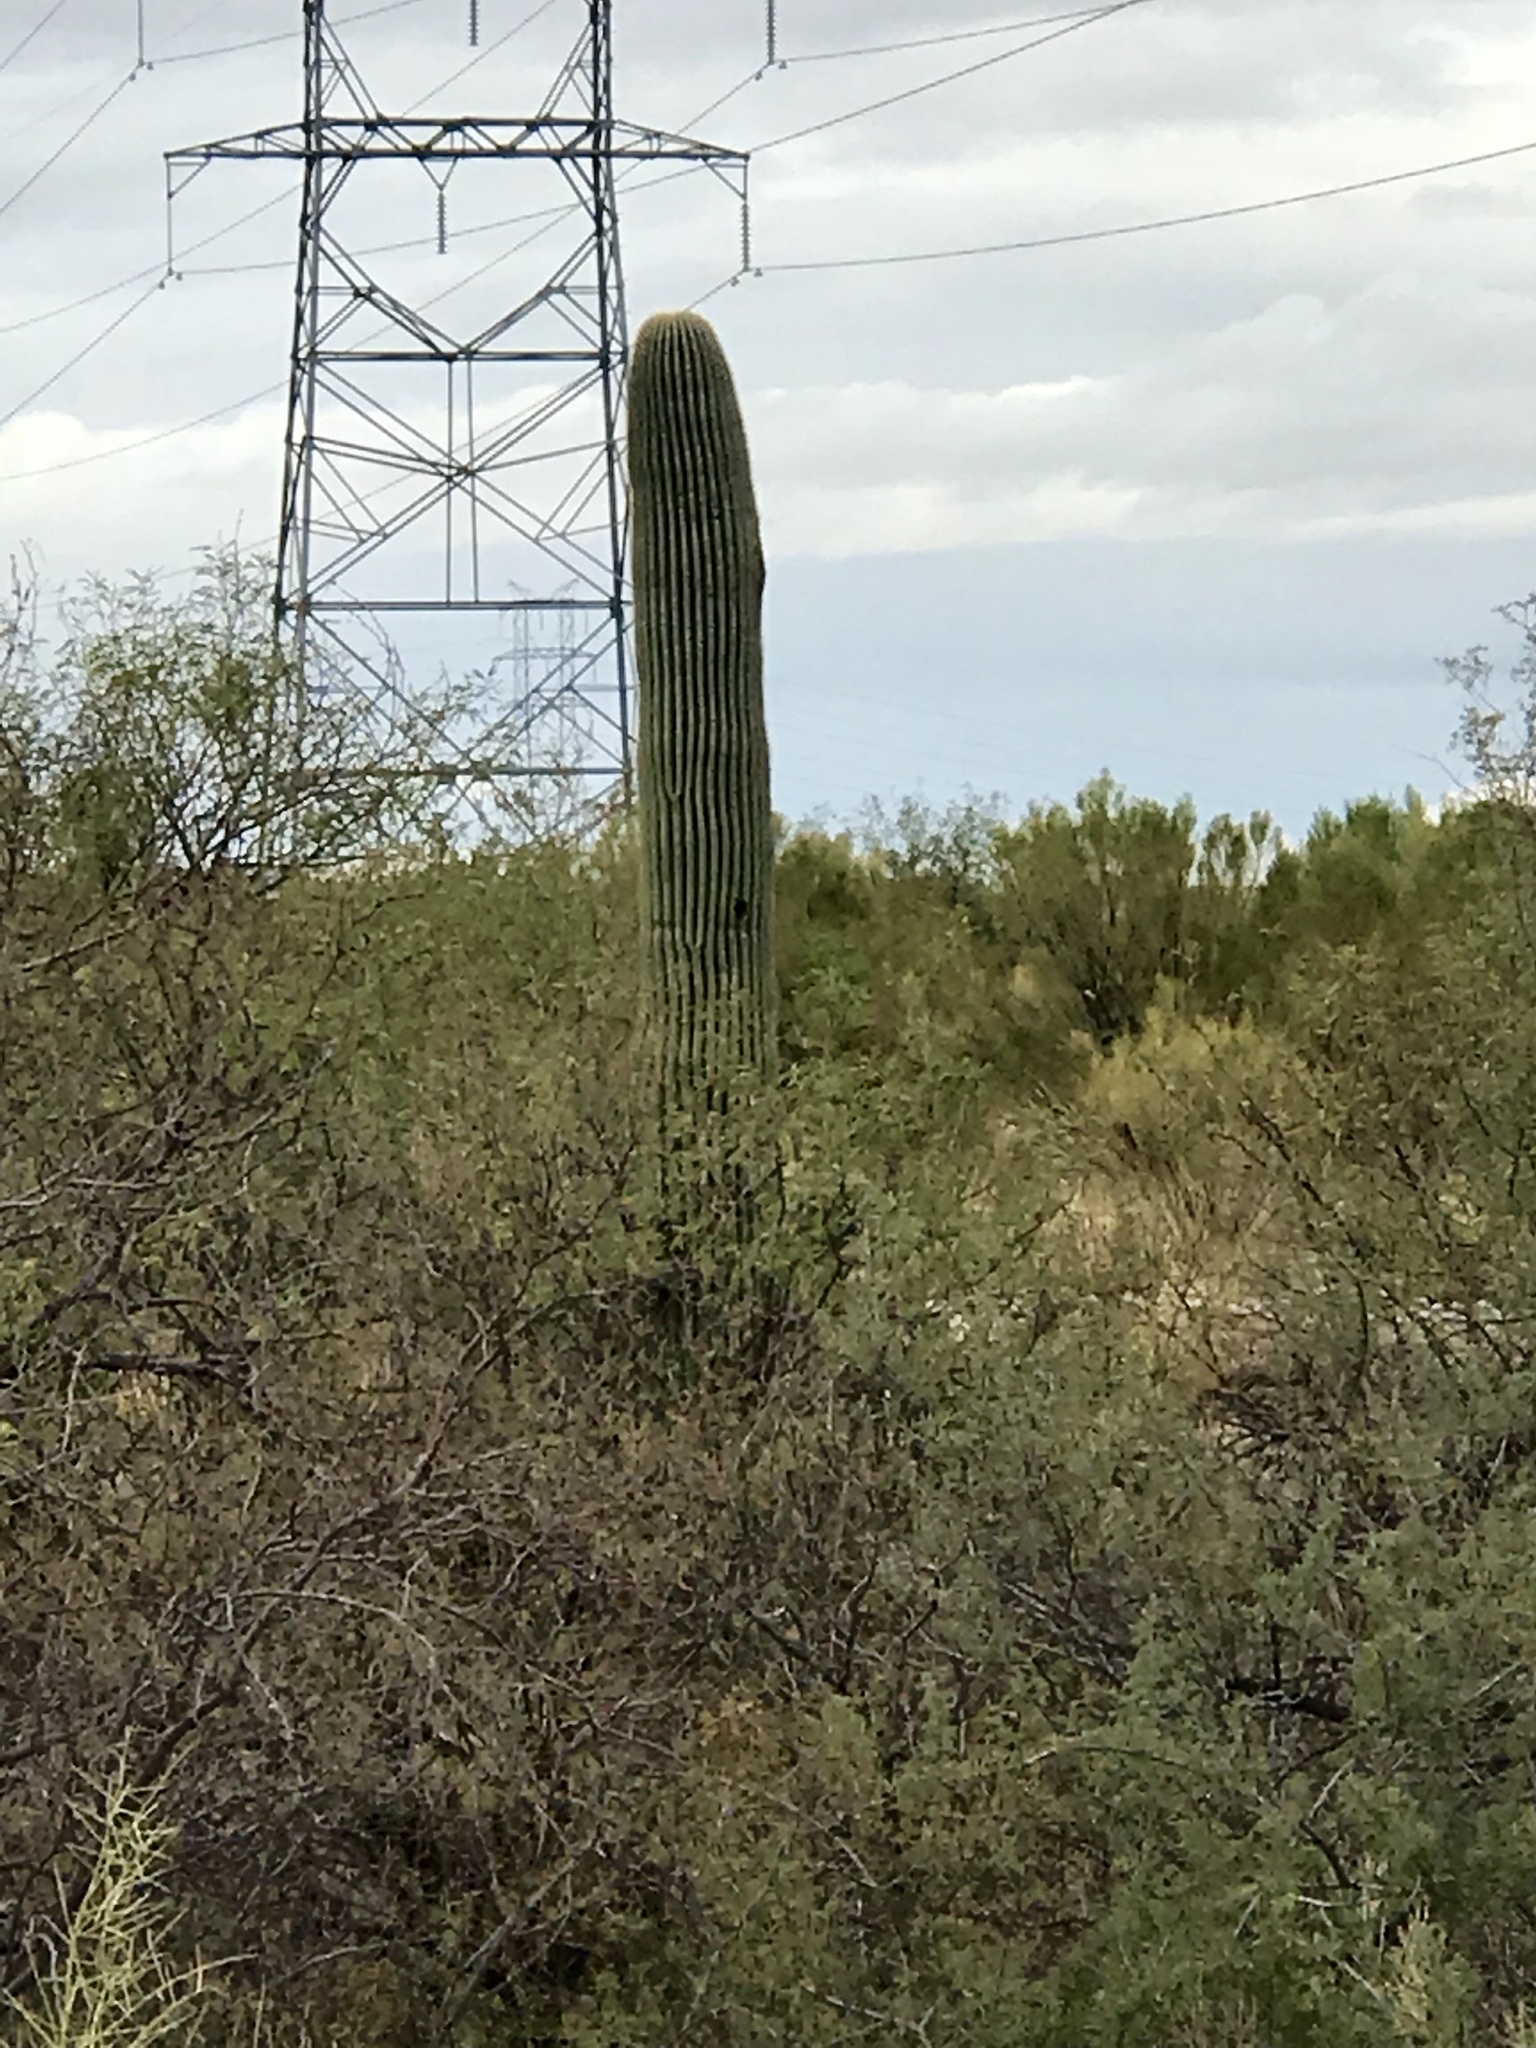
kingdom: Plantae
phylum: Tracheophyta
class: Magnoliopsida
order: Caryophyllales
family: Cactaceae
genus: Carnegiea
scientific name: Carnegiea gigantea
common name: Saguaro
